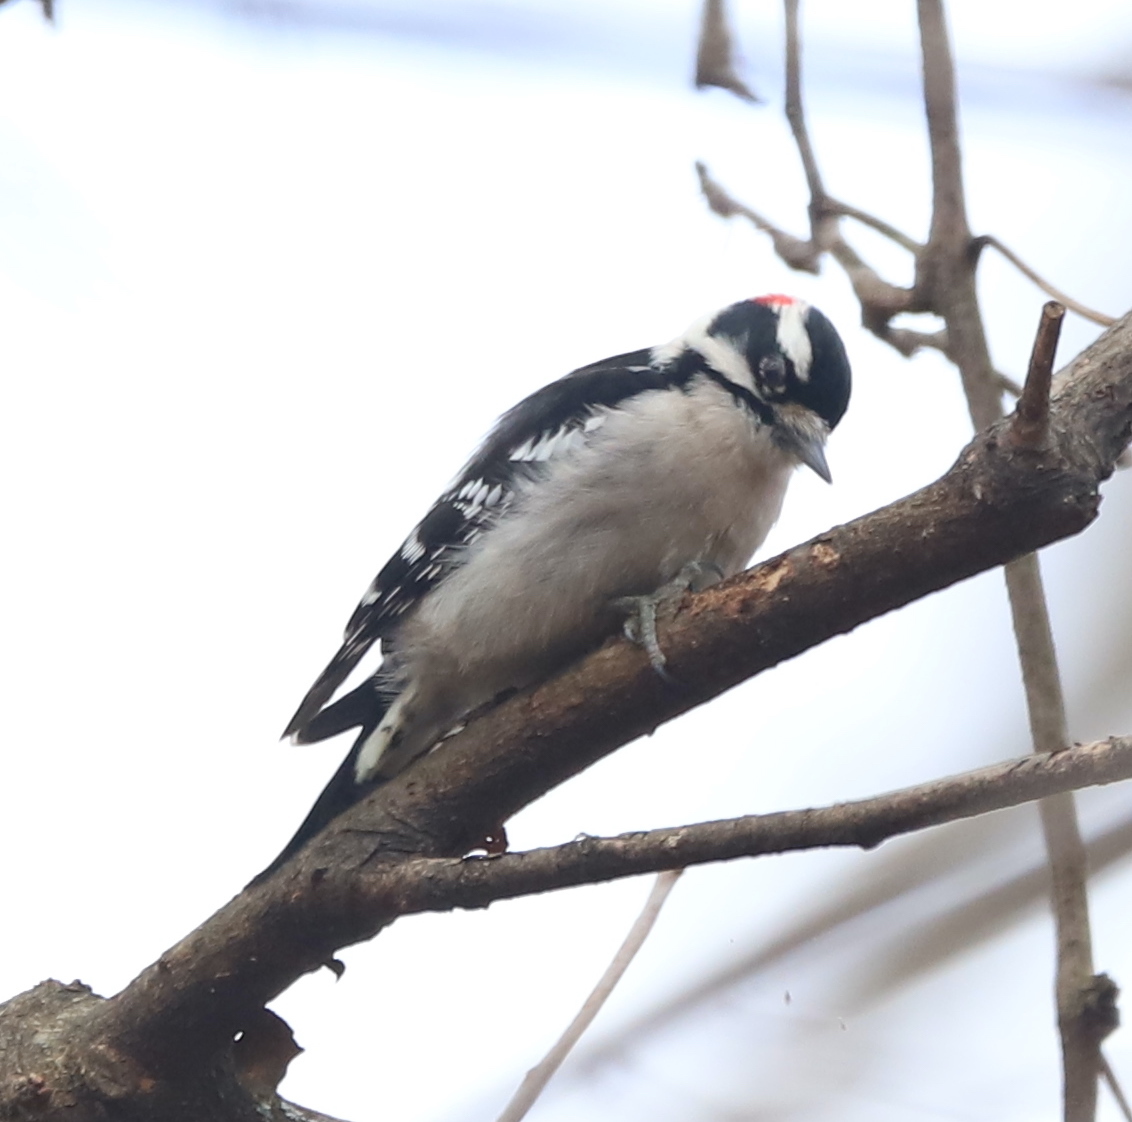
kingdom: Animalia
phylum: Chordata
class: Aves
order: Piciformes
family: Picidae
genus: Dryobates
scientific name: Dryobates pubescens
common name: Downy woodpecker
